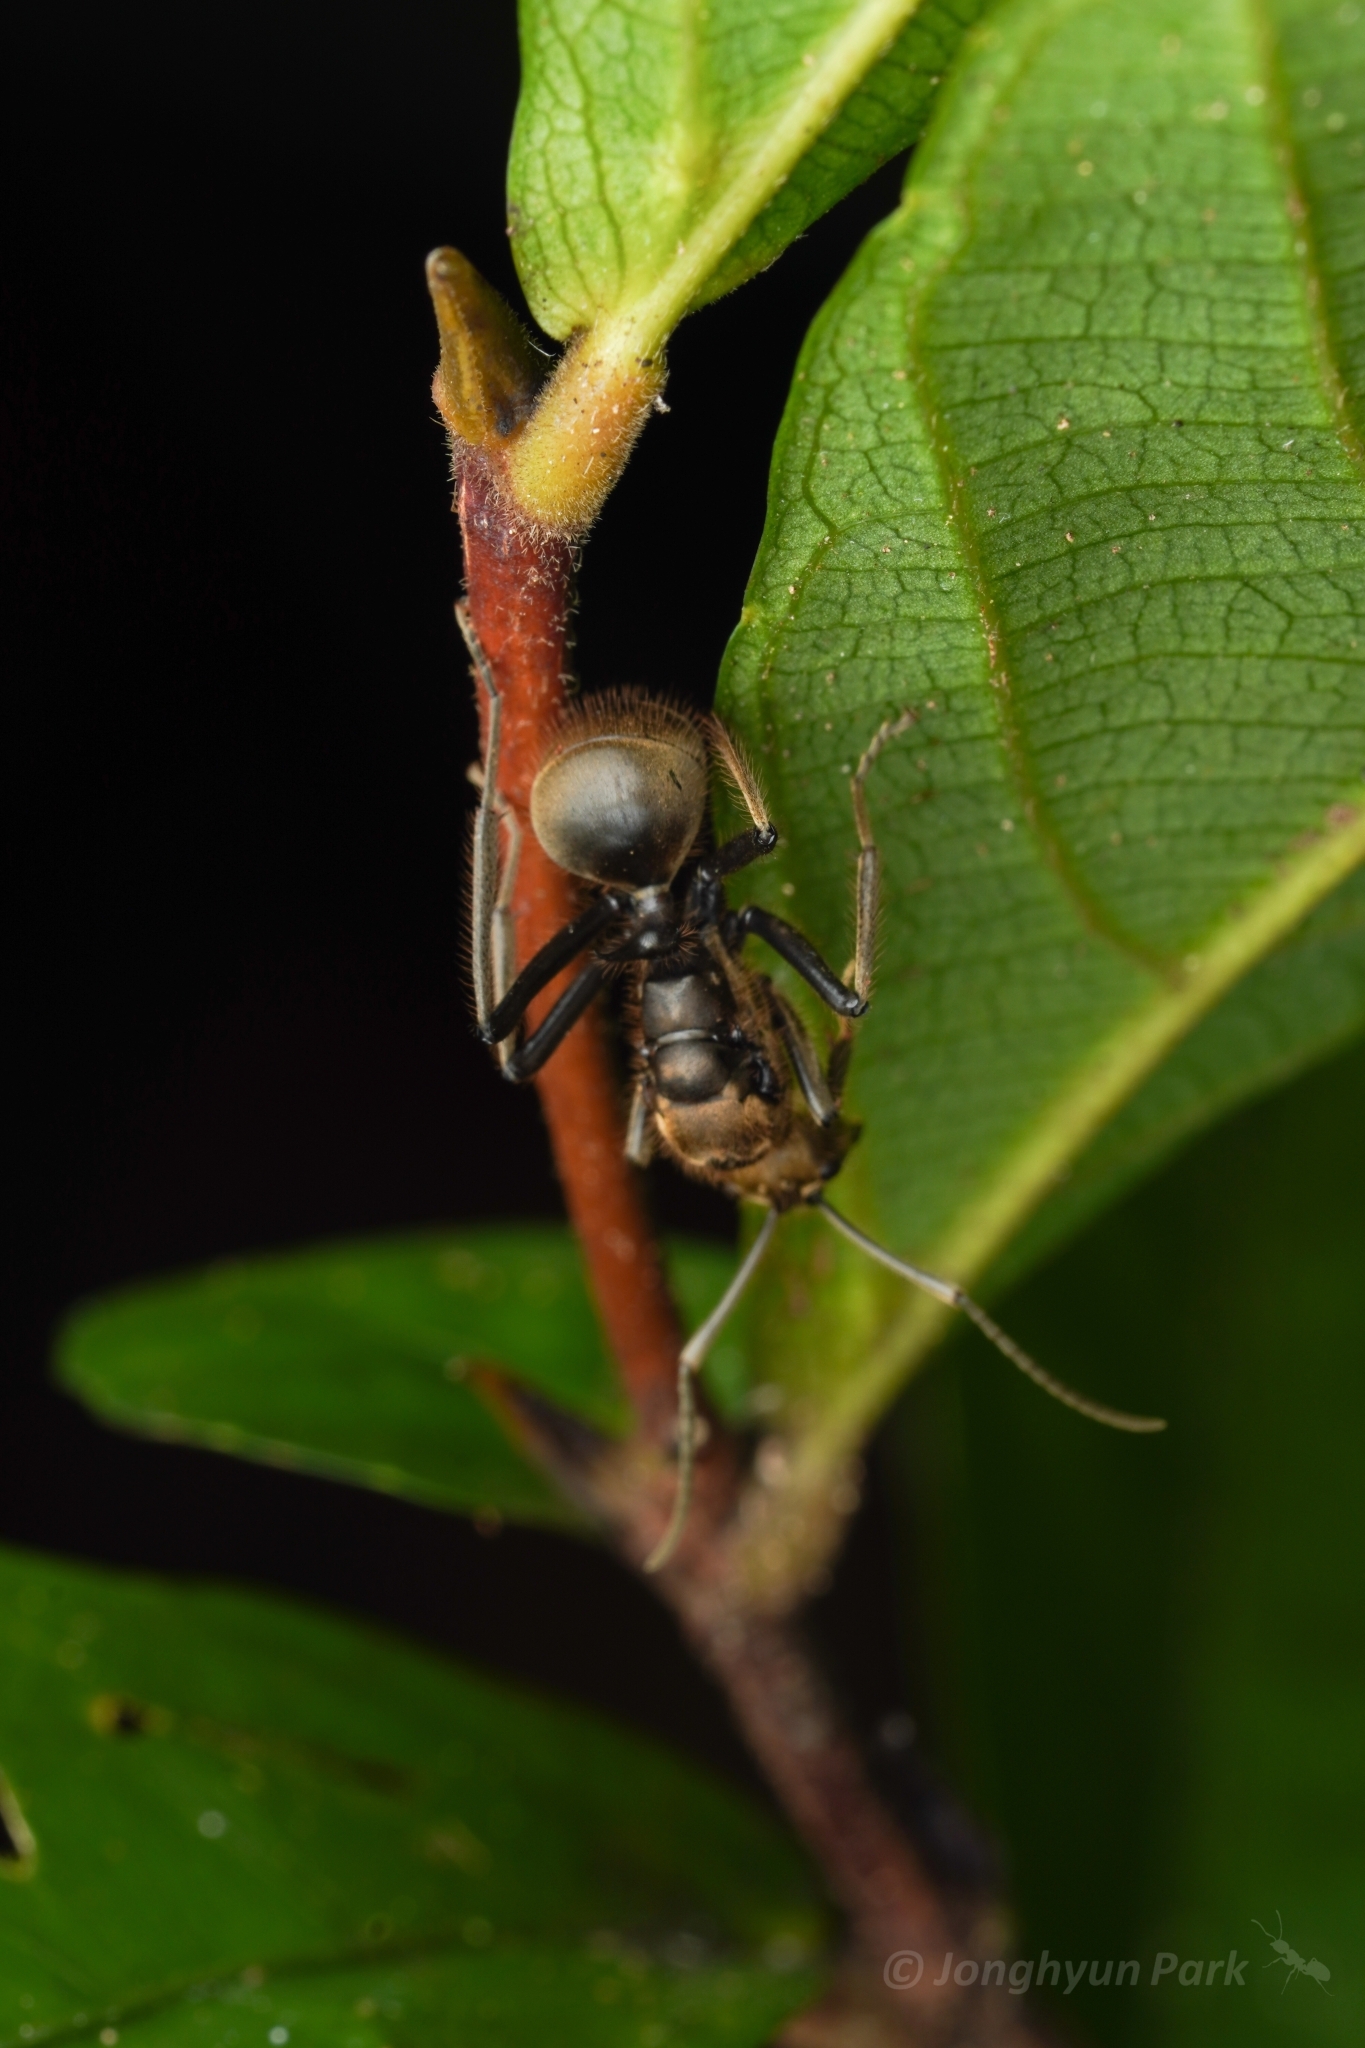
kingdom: Animalia
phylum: Arthropoda
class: Insecta
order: Hymenoptera
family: Formicidae
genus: Polyrhachis
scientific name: Polyrhachis ypsilon
